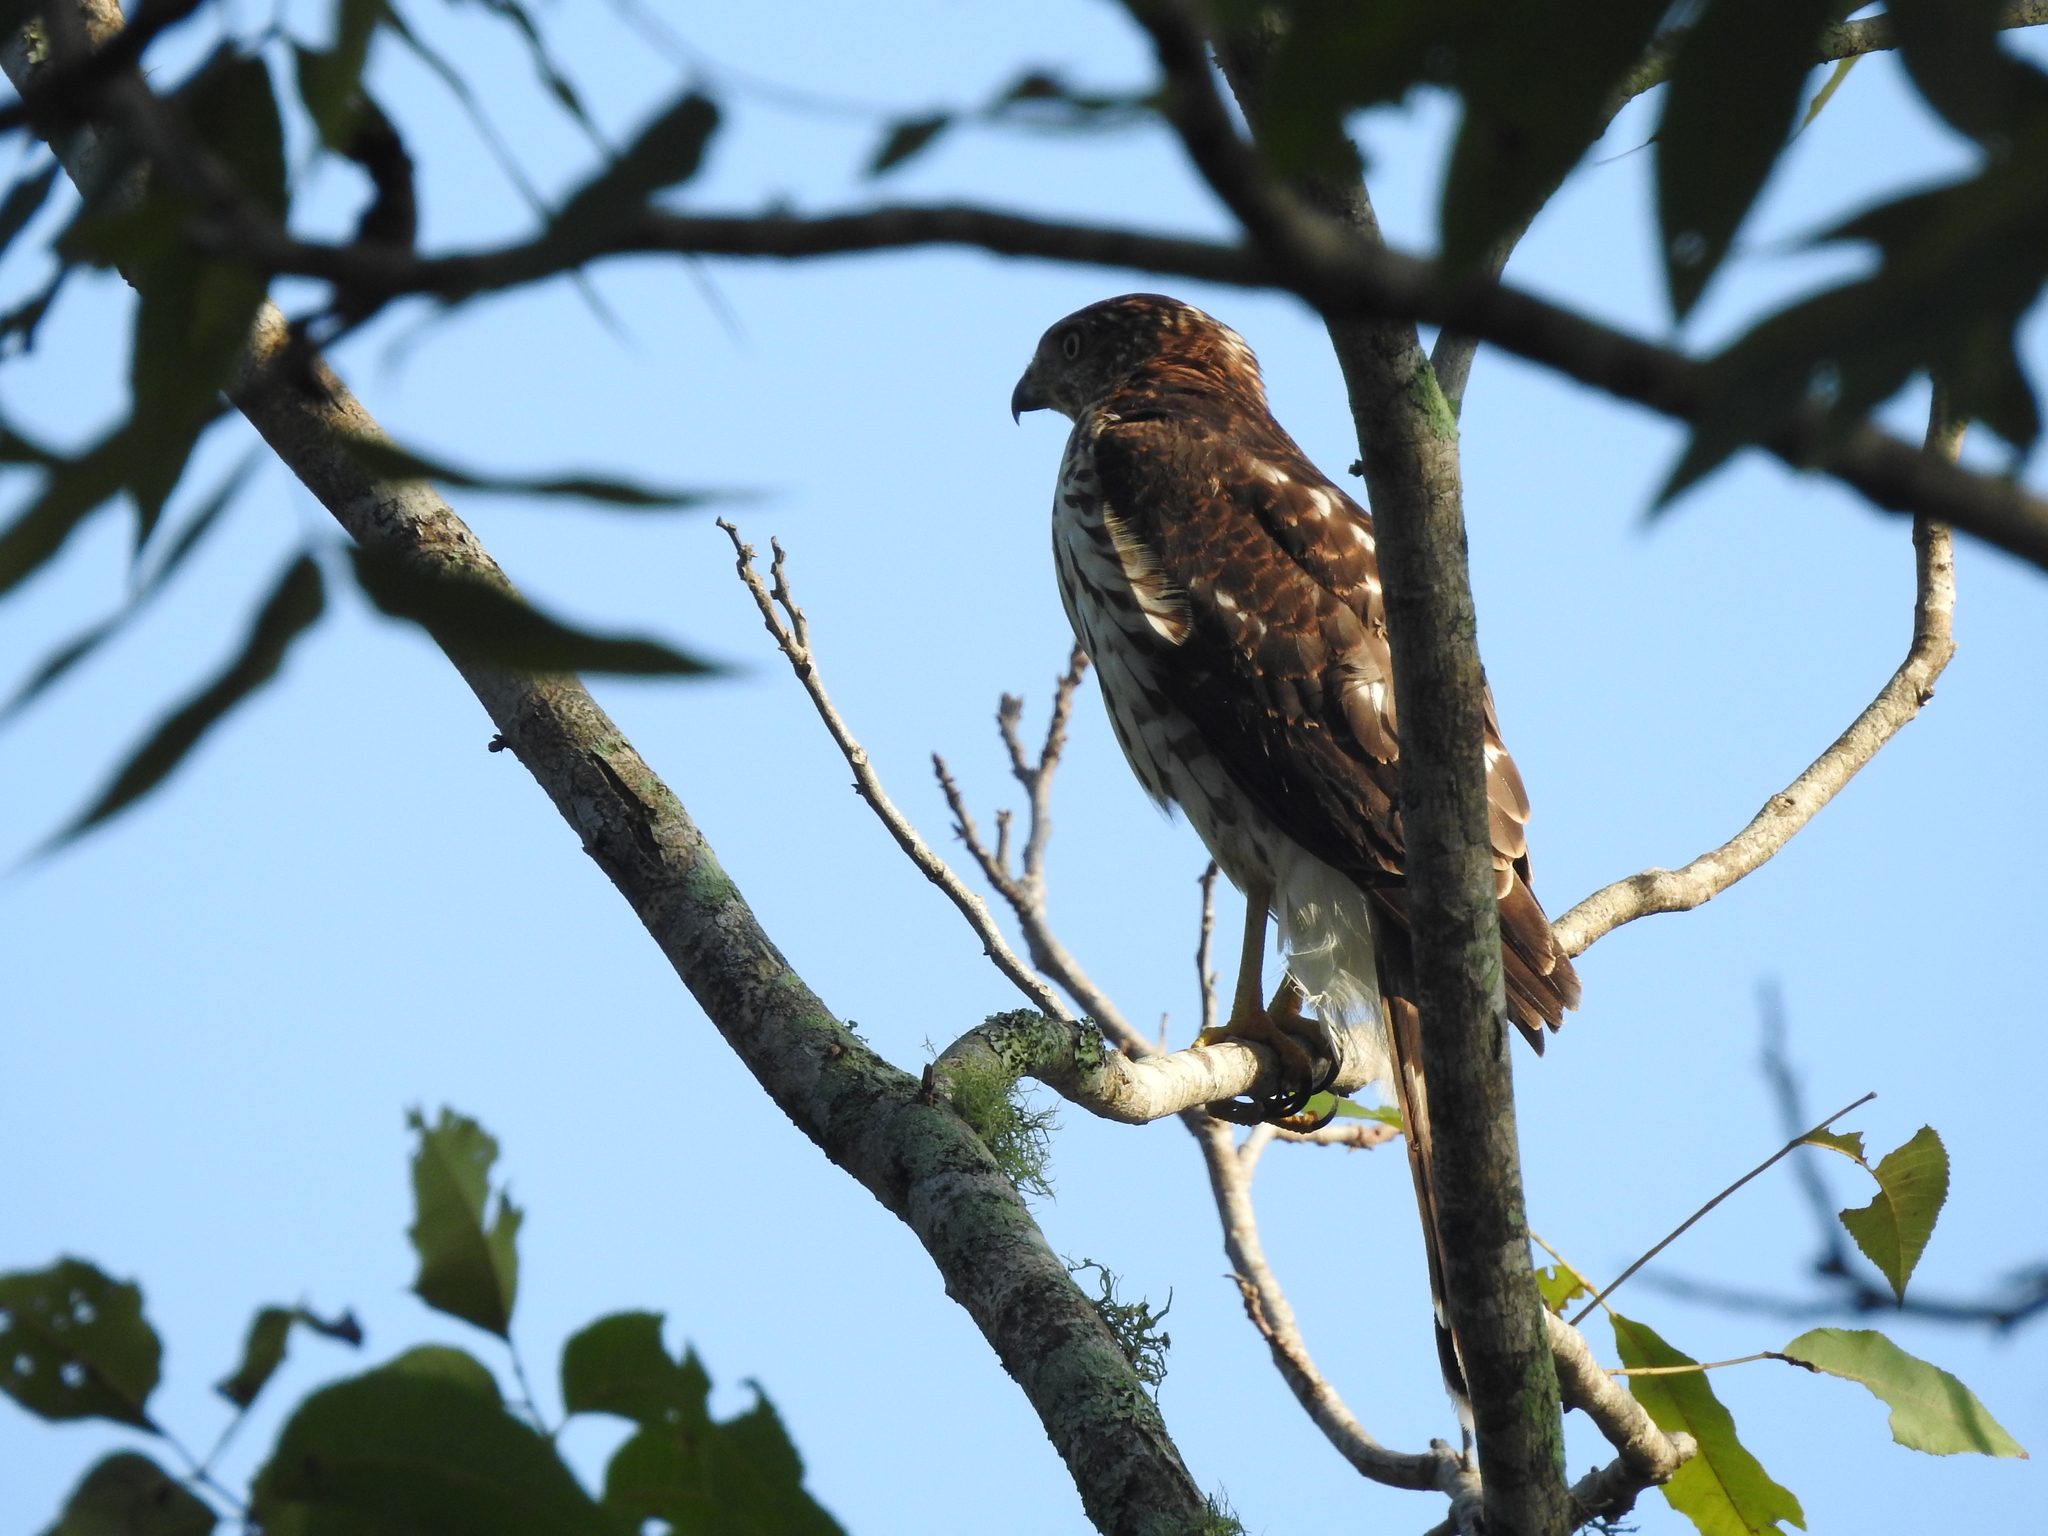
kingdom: Animalia
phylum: Chordata
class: Aves
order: Accipitriformes
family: Accipitridae
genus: Accipiter
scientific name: Accipiter cooperii
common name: Cooper's hawk
